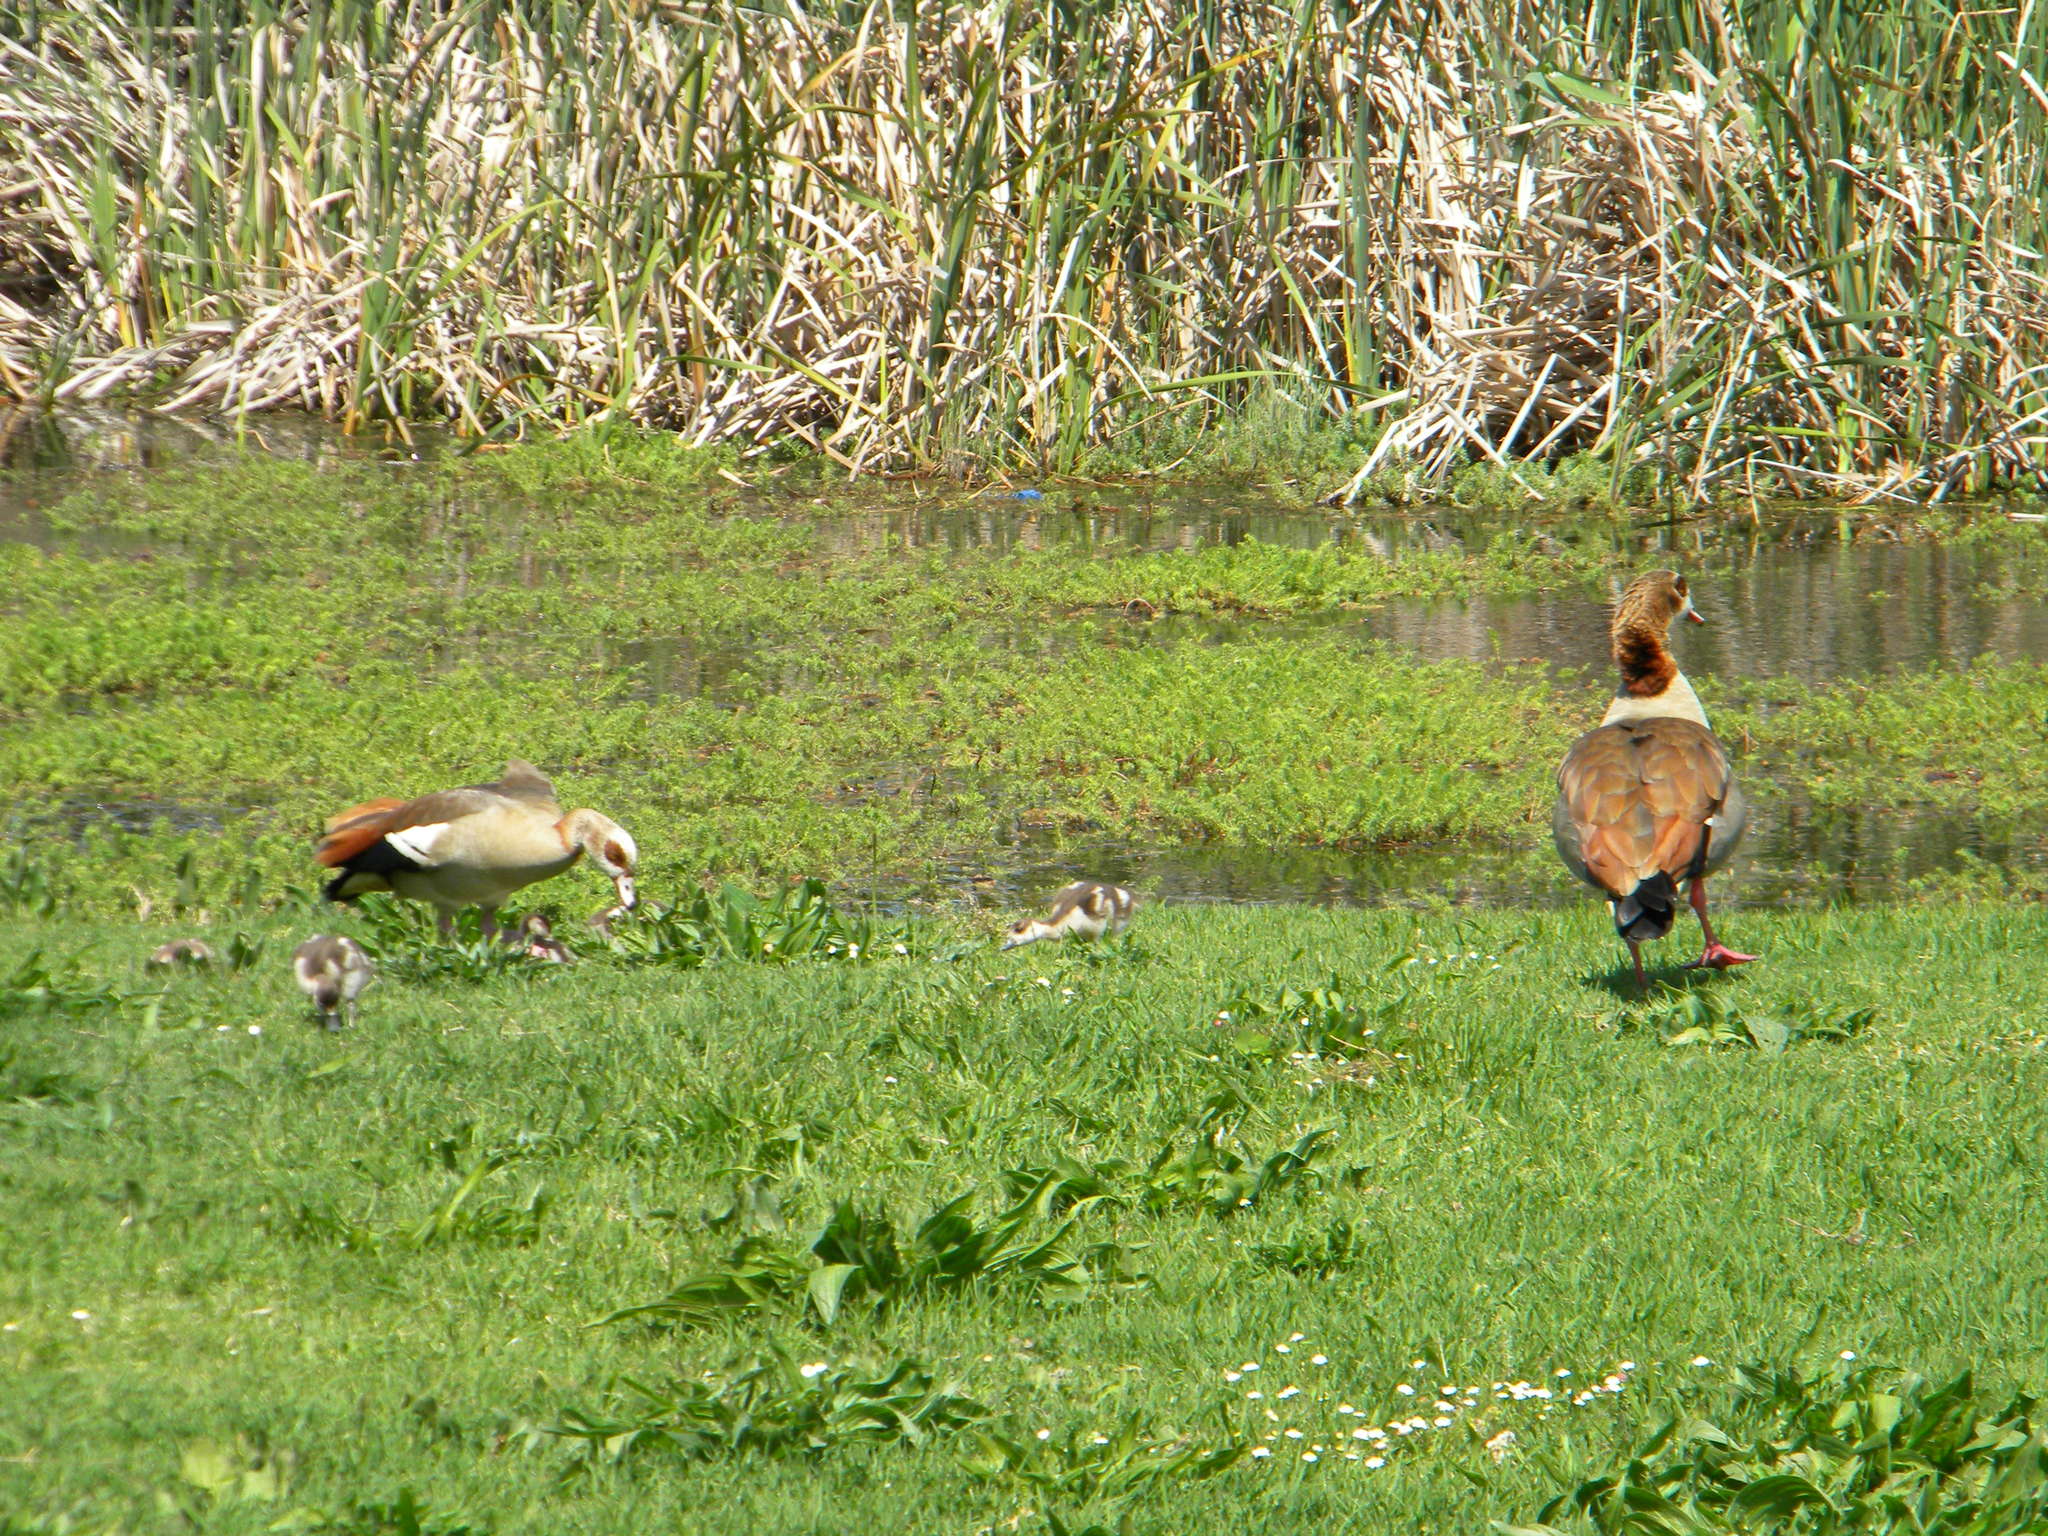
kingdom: Animalia
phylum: Chordata
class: Aves
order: Anseriformes
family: Anatidae
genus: Alopochen
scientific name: Alopochen aegyptiaca
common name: Egyptian goose
